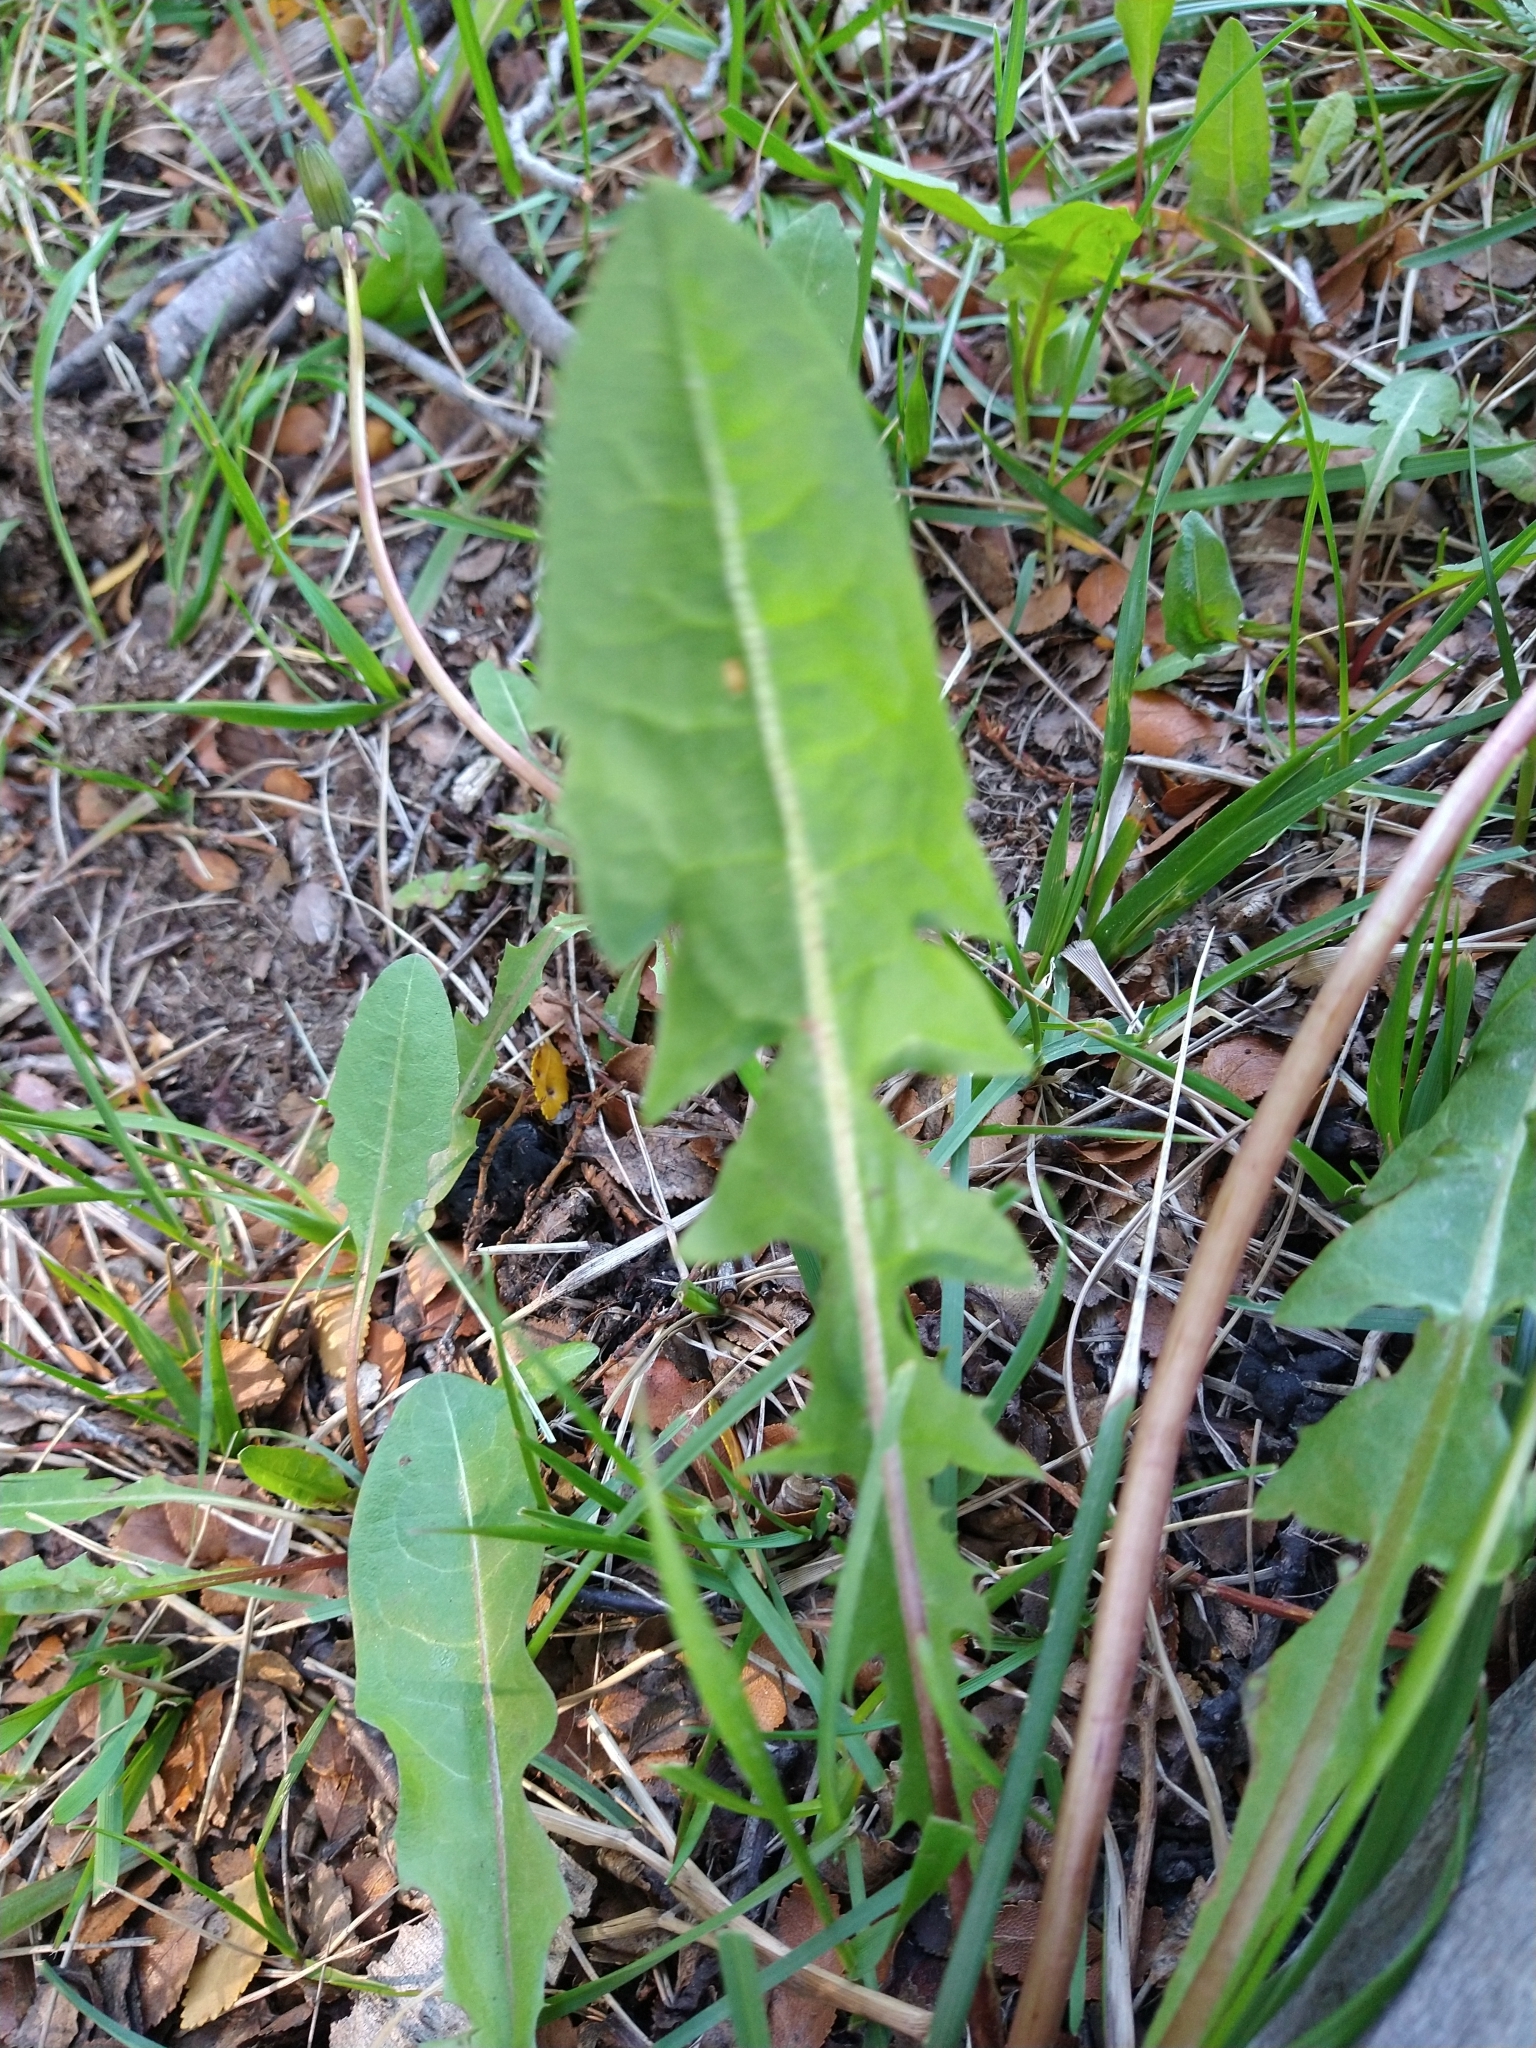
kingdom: Plantae
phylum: Tracheophyta
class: Magnoliopsida
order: Asterales
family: Asteraceae
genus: Taraxacum
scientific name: Taraxacum officinale
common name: Common dandelion
